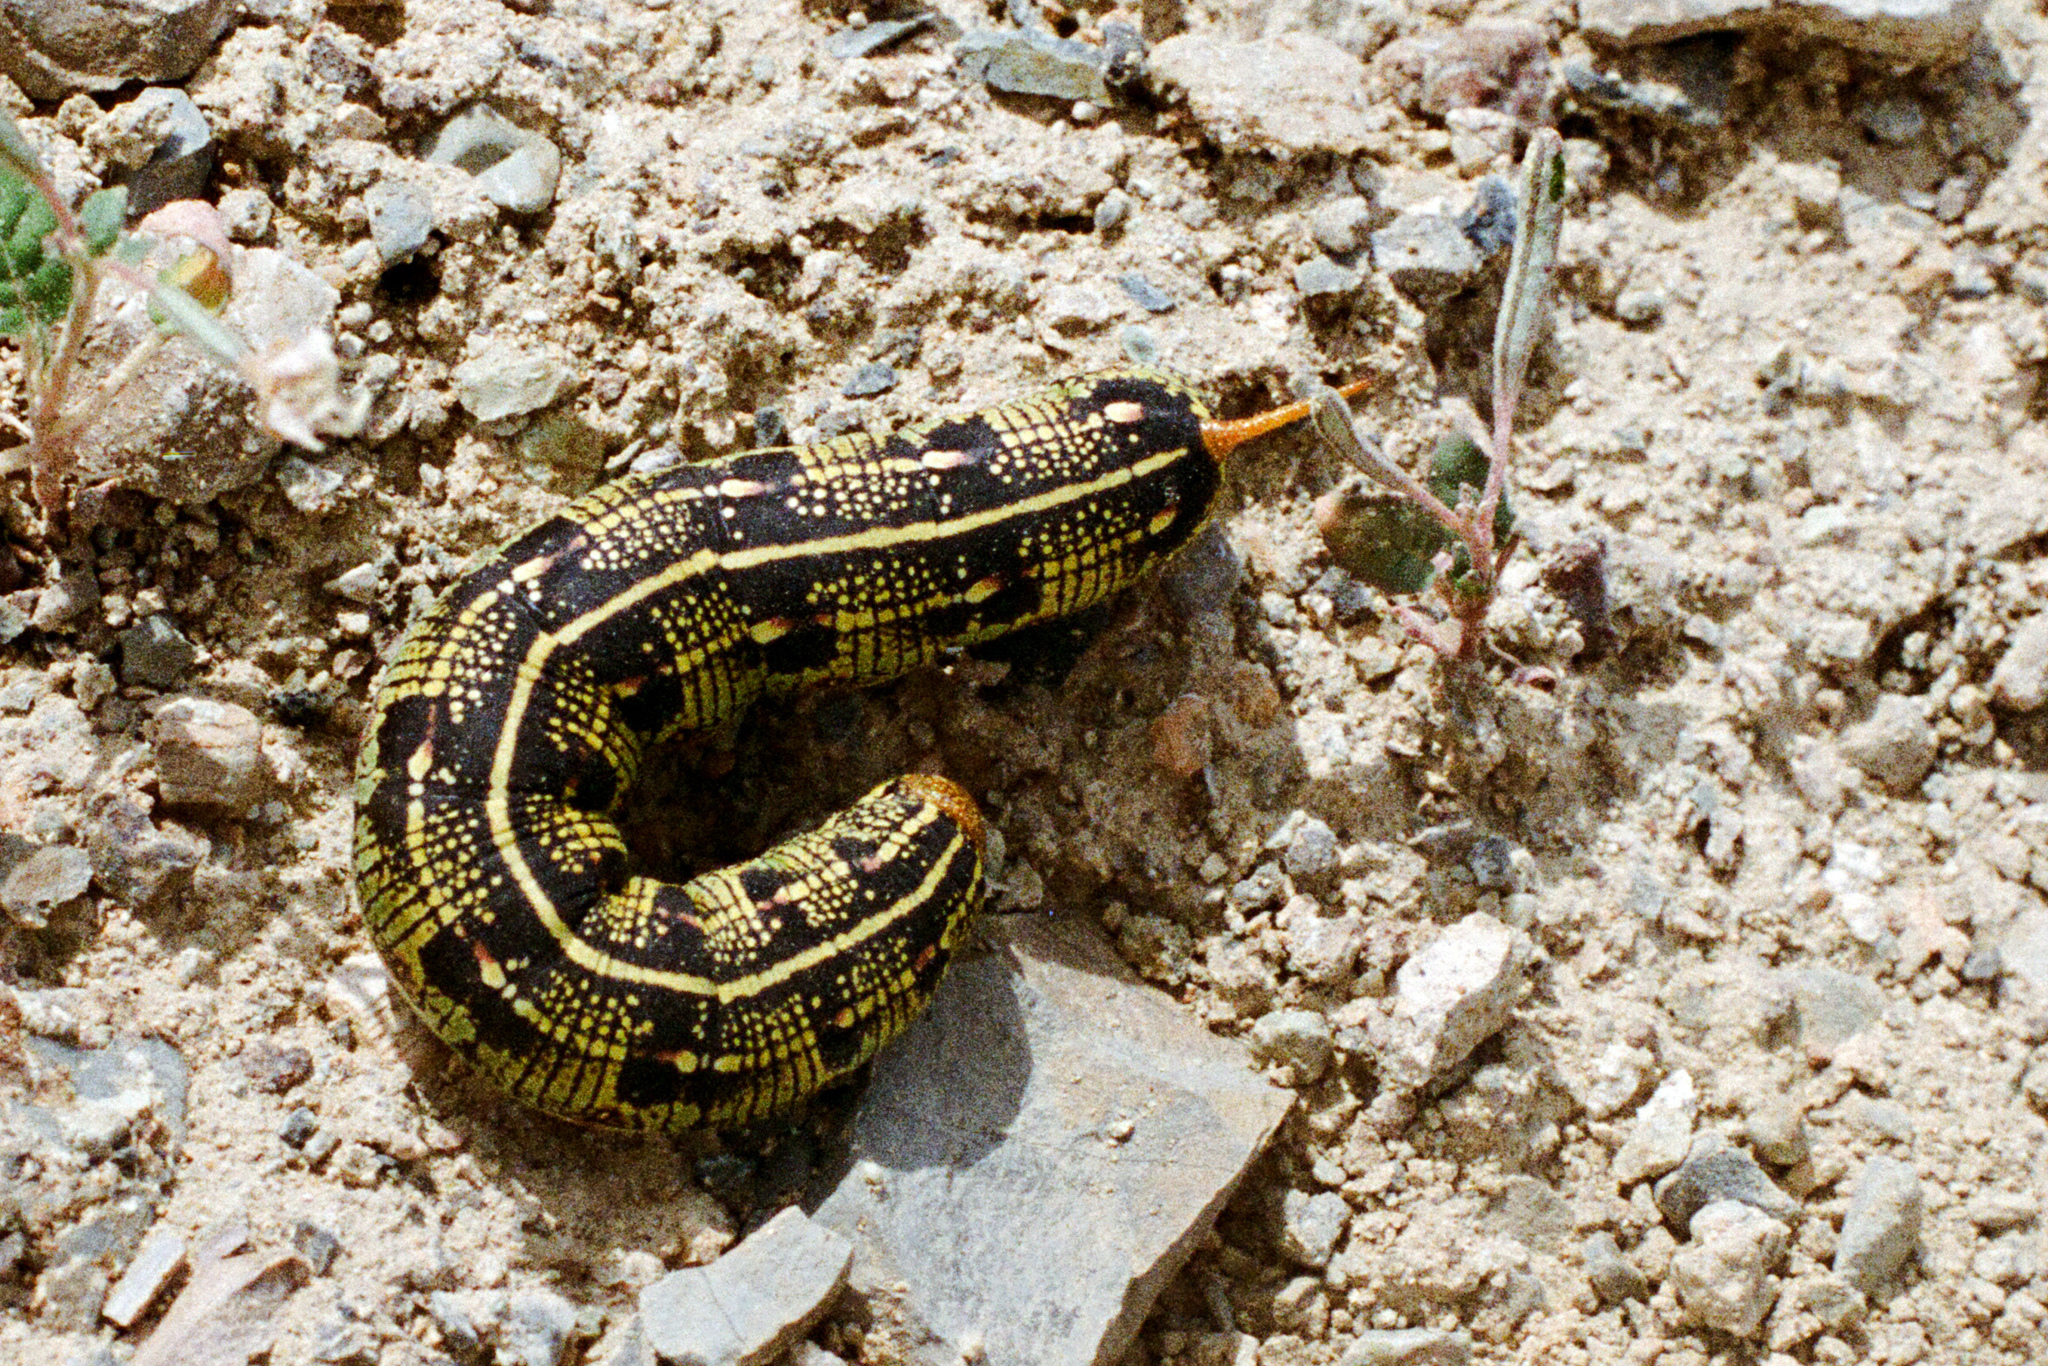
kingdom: Animalia
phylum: Arthropoda
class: Insecta
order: Lepidoptera
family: Sphingidae
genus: Hyles
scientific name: Hyles lineata
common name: White-lined sphinx
